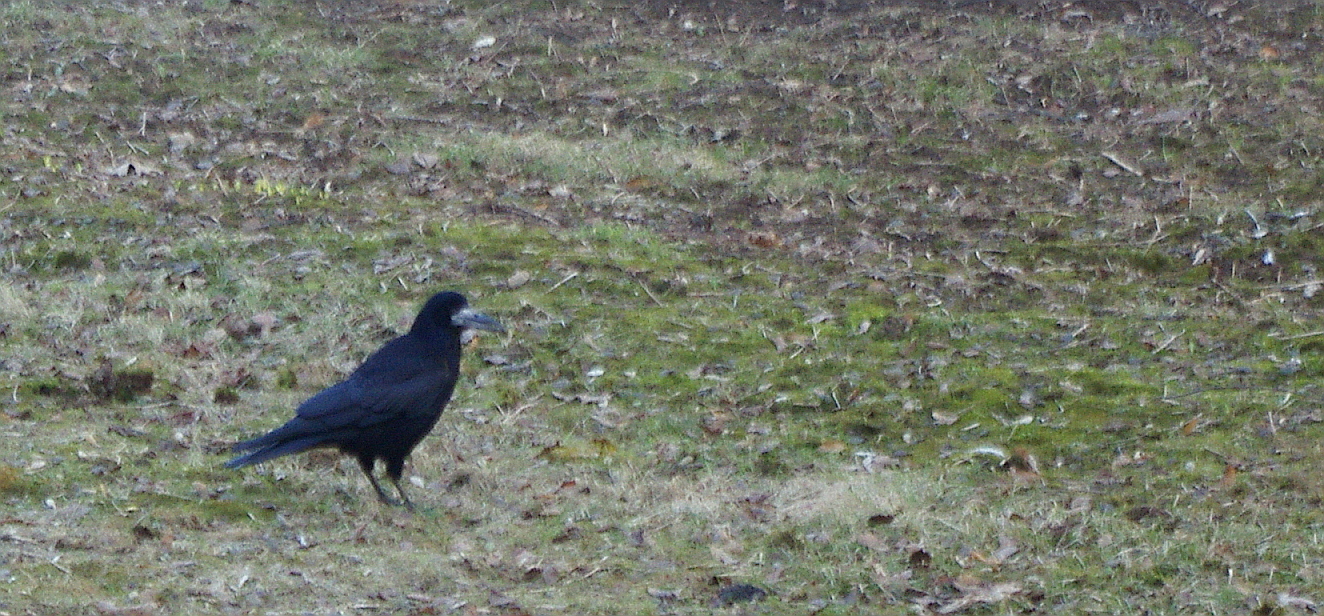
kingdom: Animalia
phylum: Chordata
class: Aves
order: Passeriformes
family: Corvidae
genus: Corvus
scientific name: Corvus frugilegus
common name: Rook
